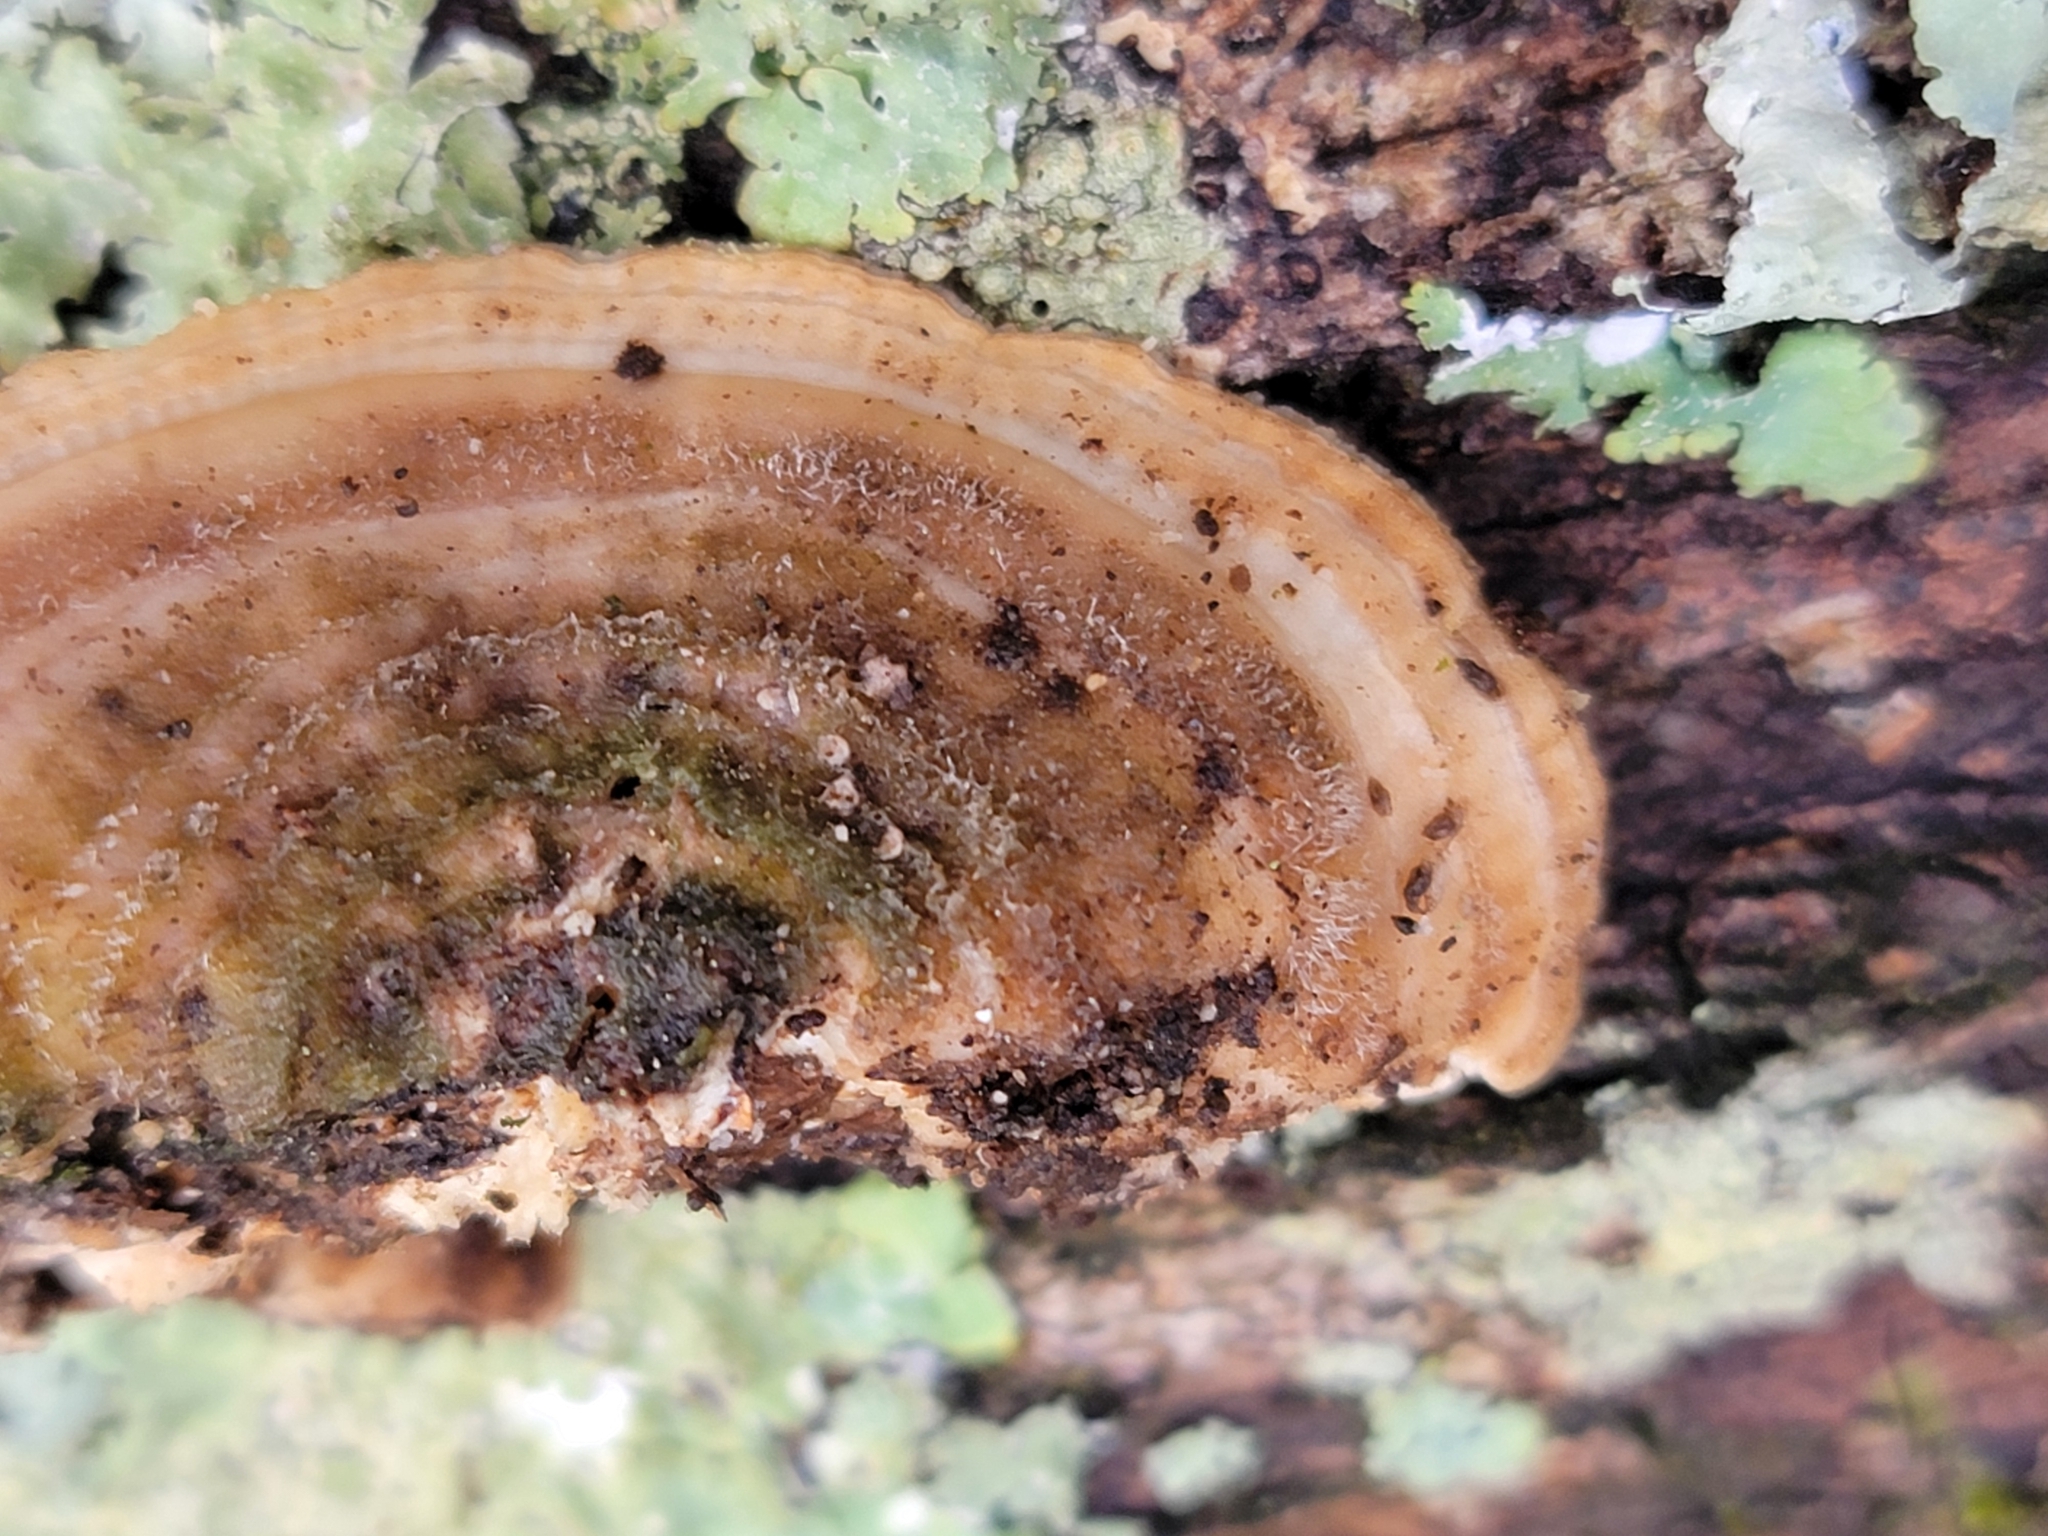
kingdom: Fungi
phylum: Basidiomycota
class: Agaricomycetes
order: Polyporales
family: Polyporaceae
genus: Lenzites
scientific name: Lenzites betulinus
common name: Birch mazegill
